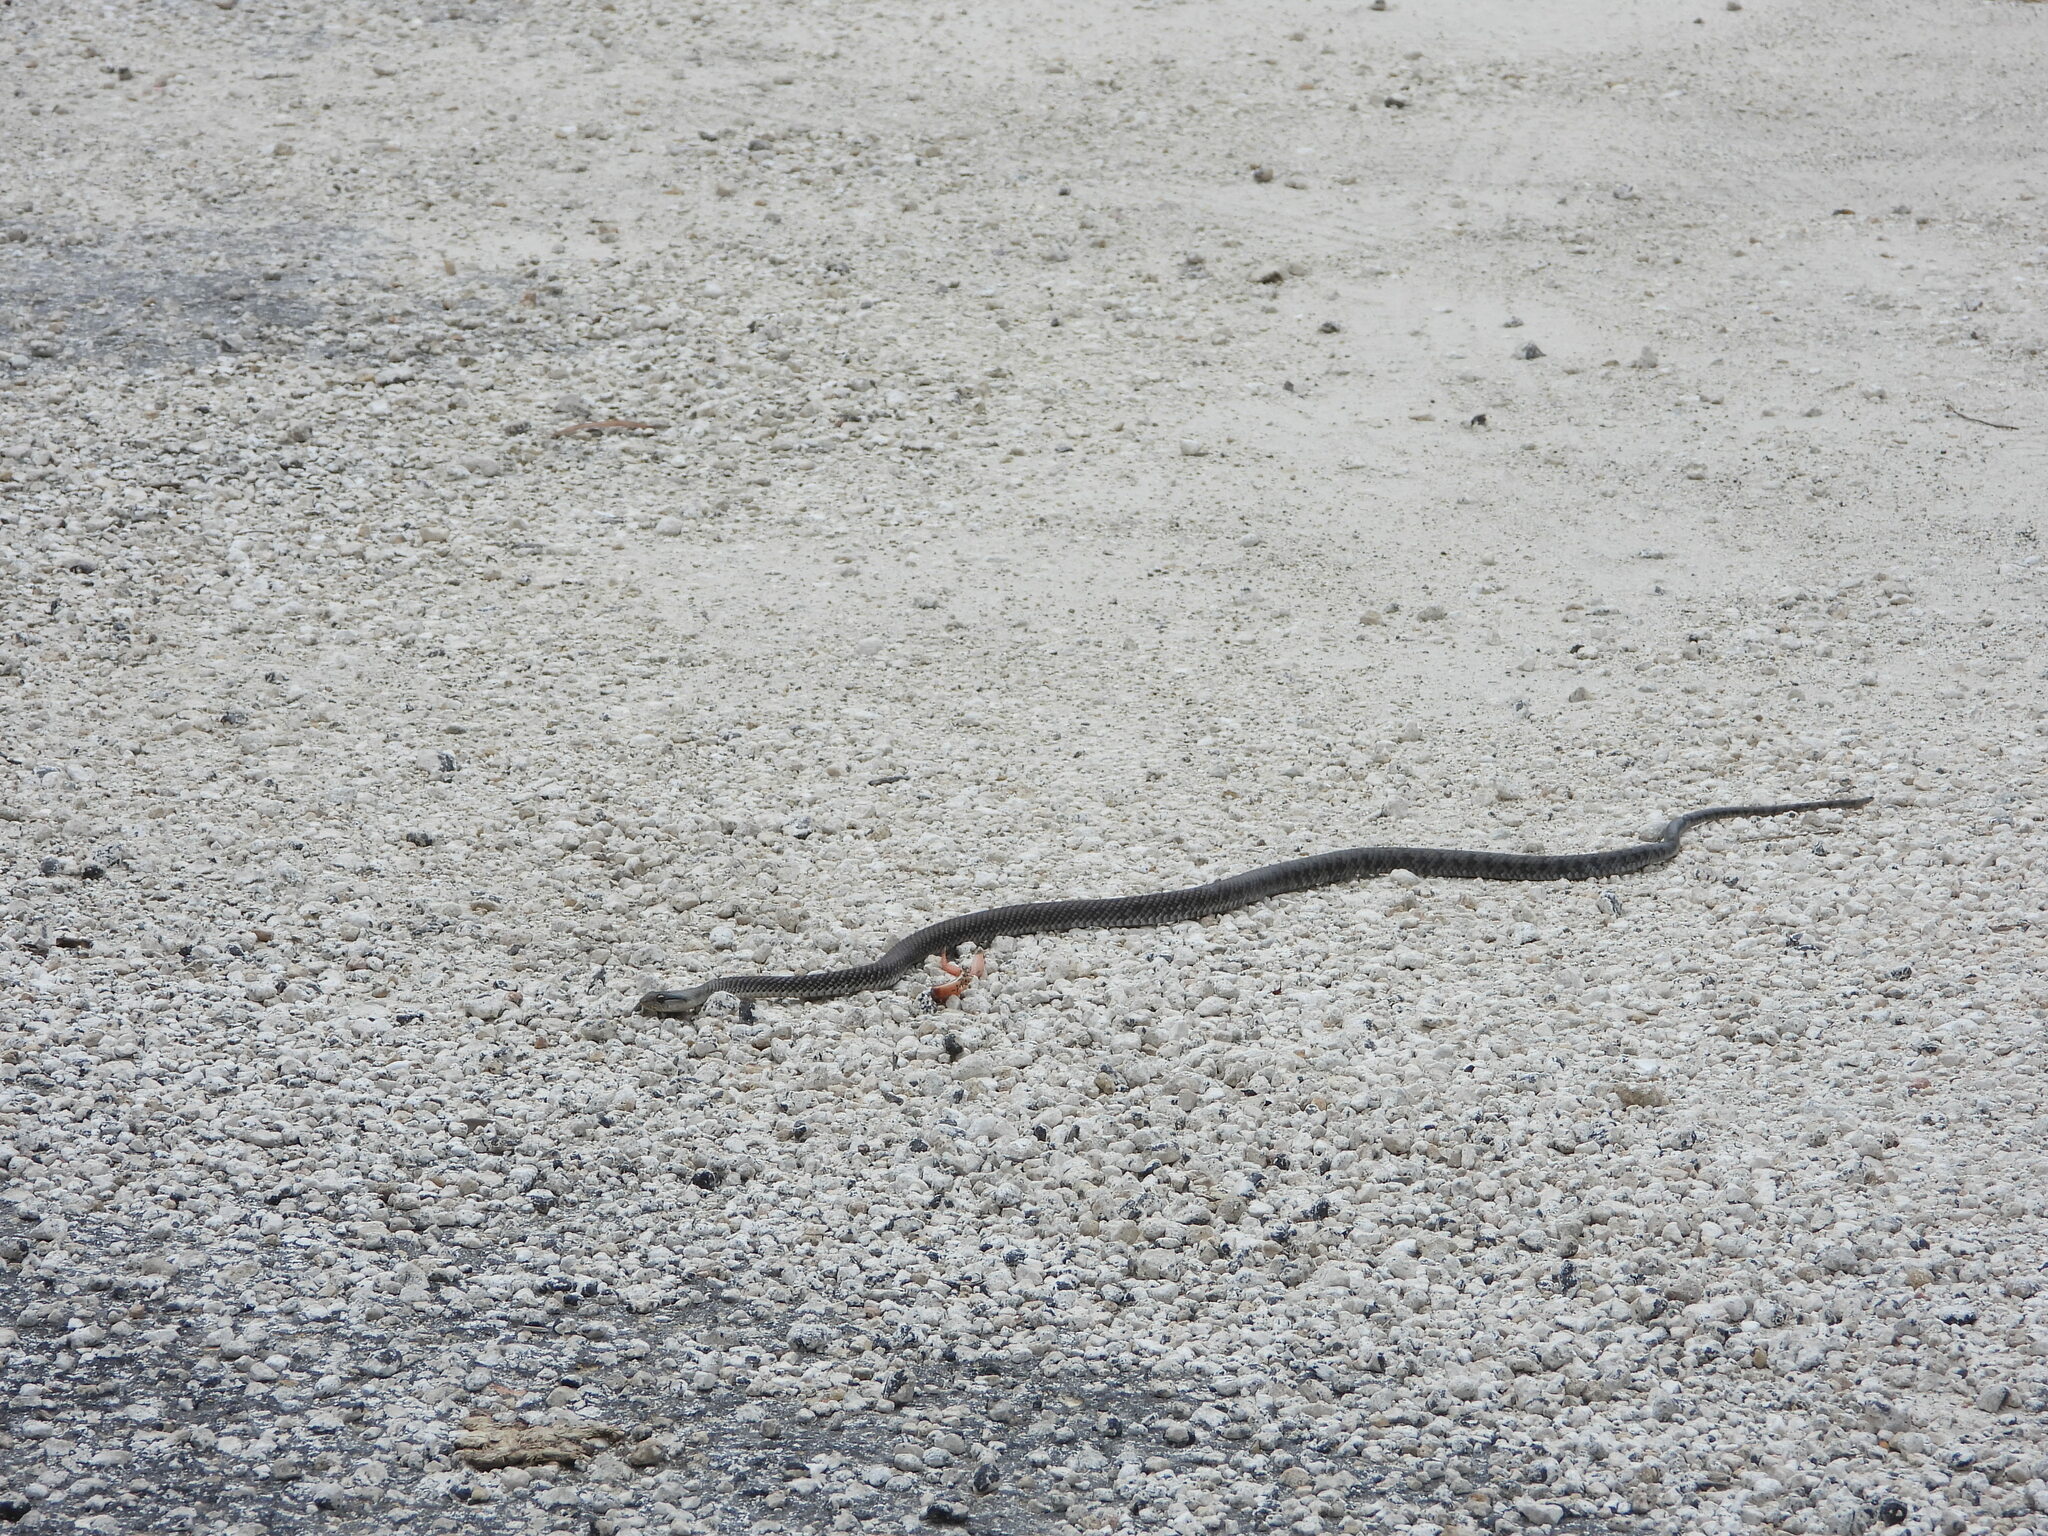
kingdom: Animalia
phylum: Chordata
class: Squamata
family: Colubridae
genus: Cubophis
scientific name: Cubophis caymanus
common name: Black snake
